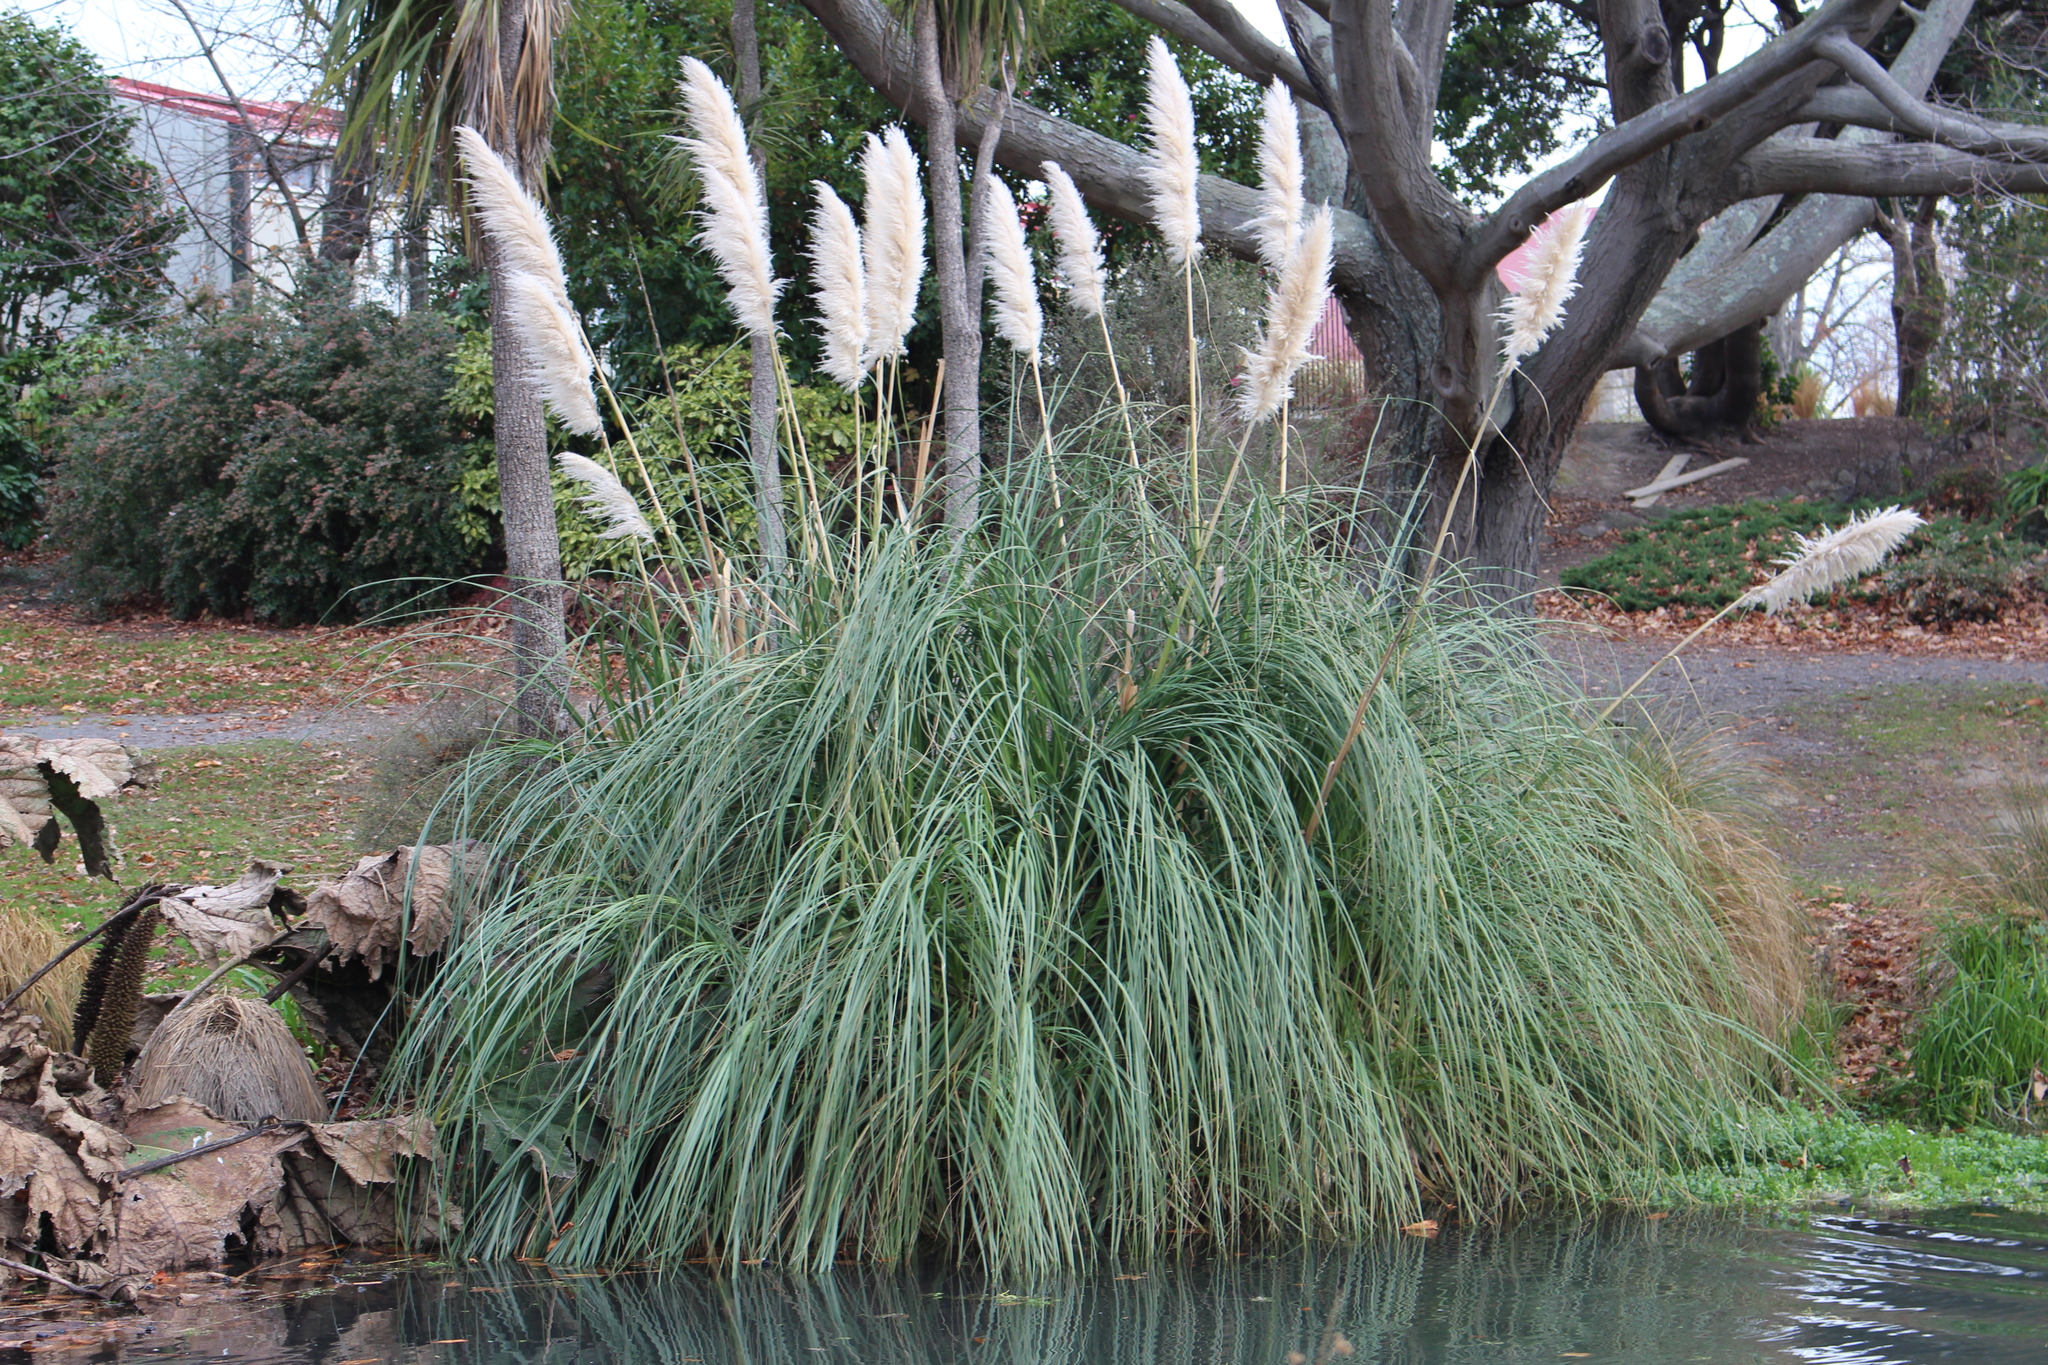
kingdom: Plantae
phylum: Tracheophyta
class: Liliopsida
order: Poales
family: Poaceae
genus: Cortaderia
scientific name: Cortaderia selloana
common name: Uruguayan pampas grass
